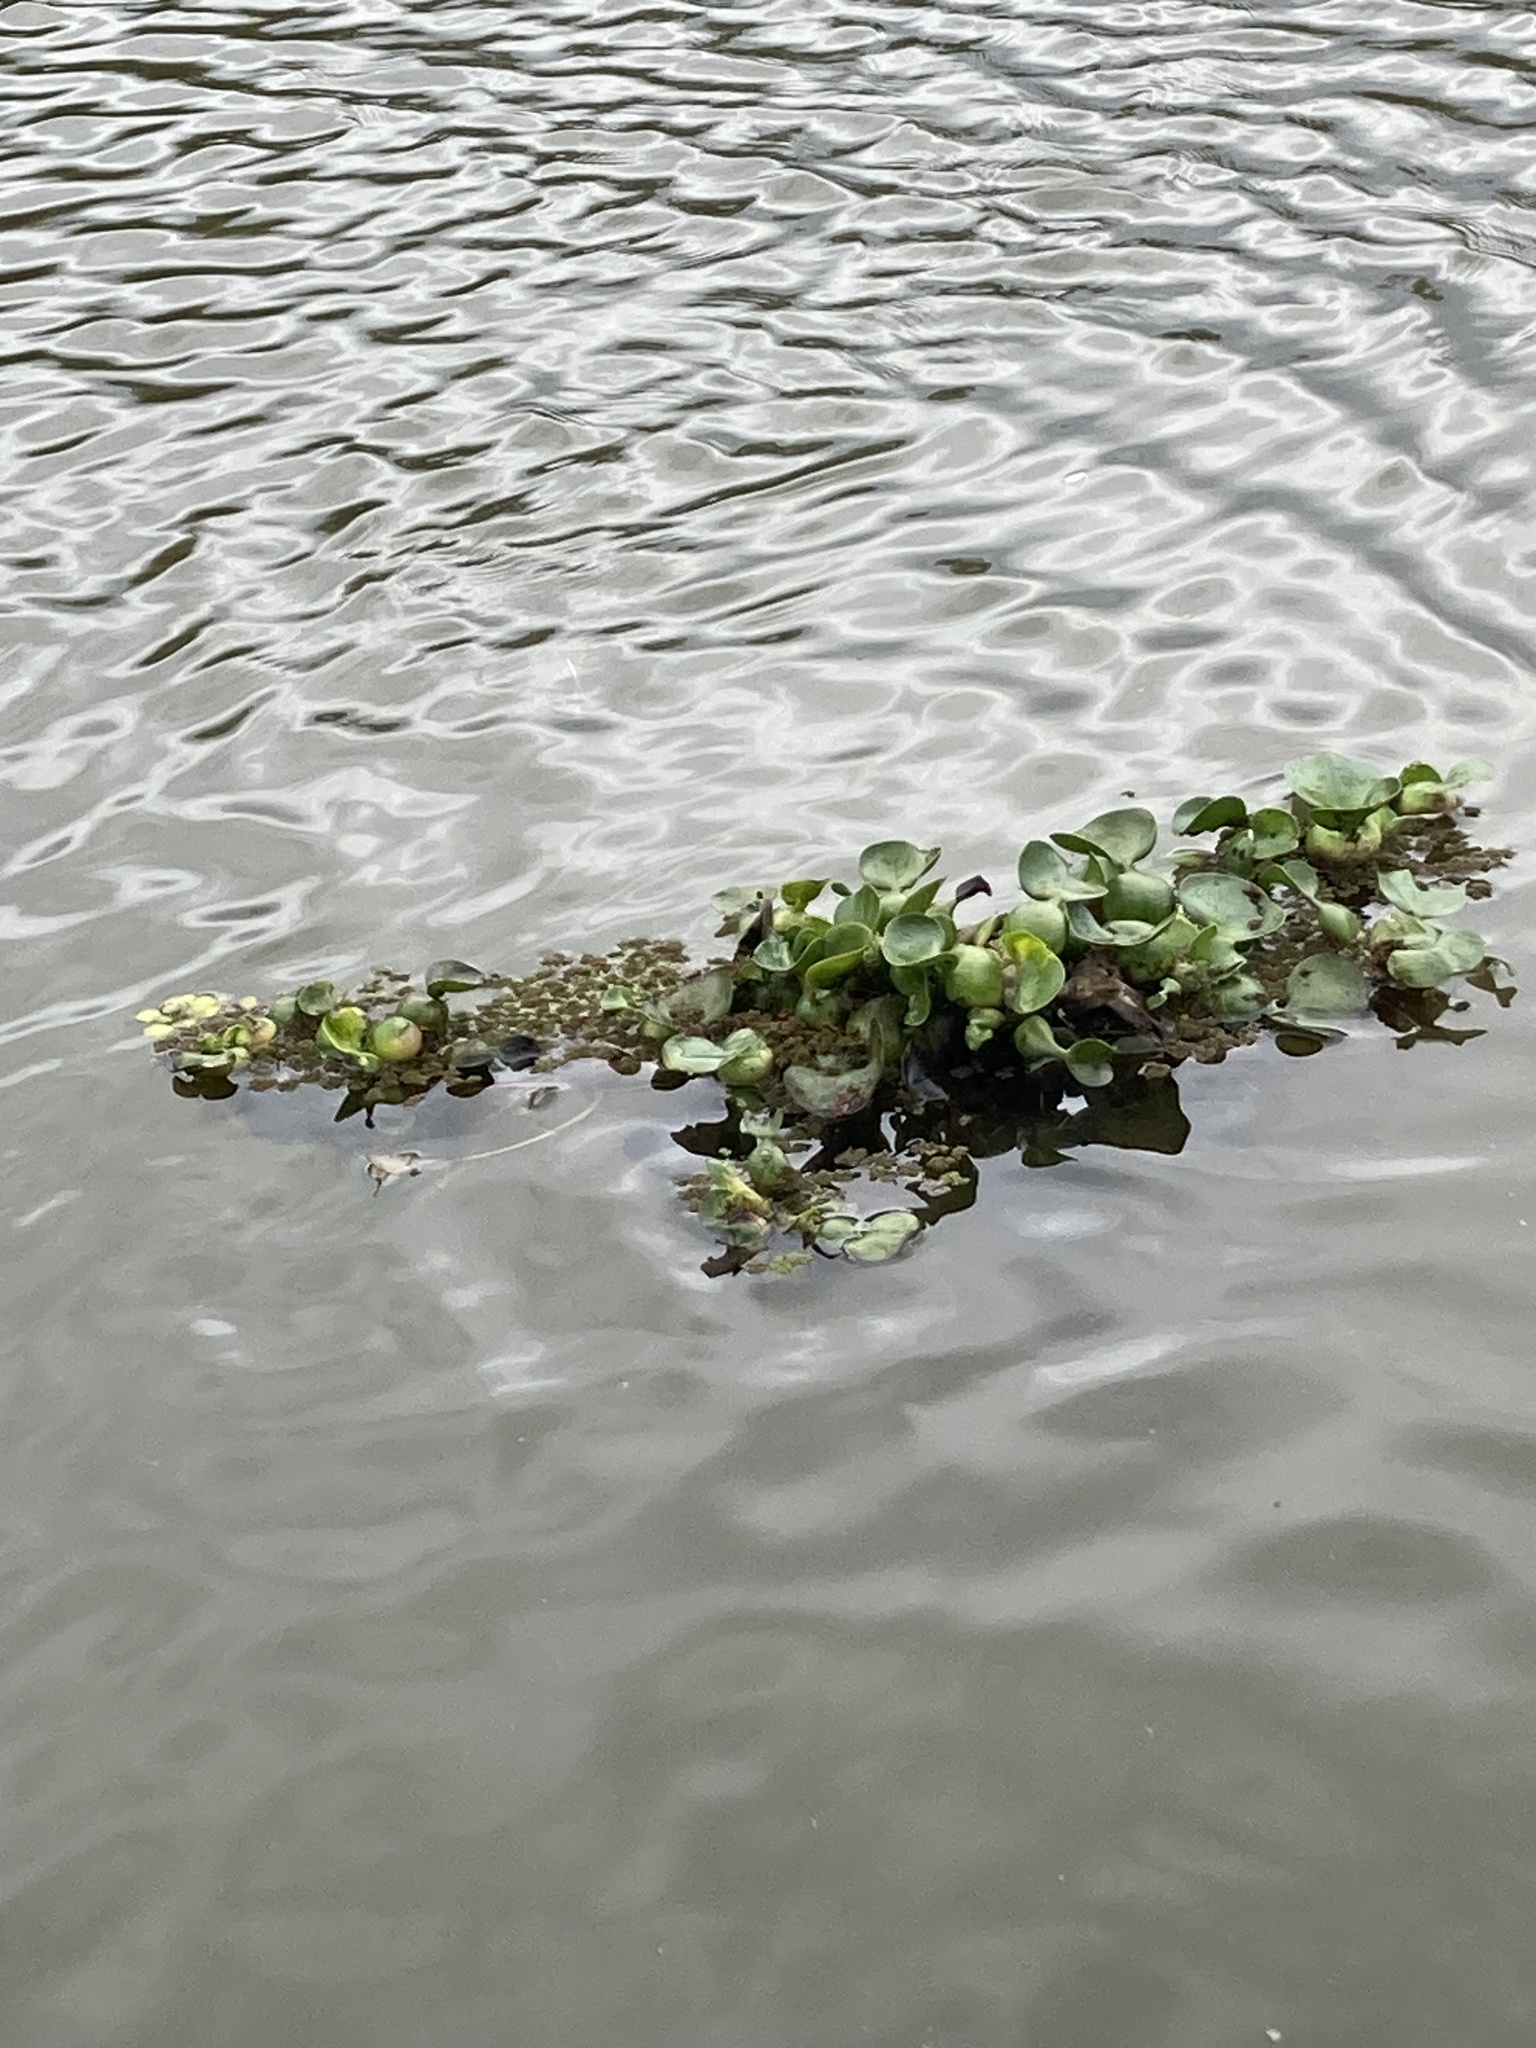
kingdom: Plantae
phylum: Tracheophyta
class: Liliopsida
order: Commelinales
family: Pontederiaceae
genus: Pontederia
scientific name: Pontederia crassipes
